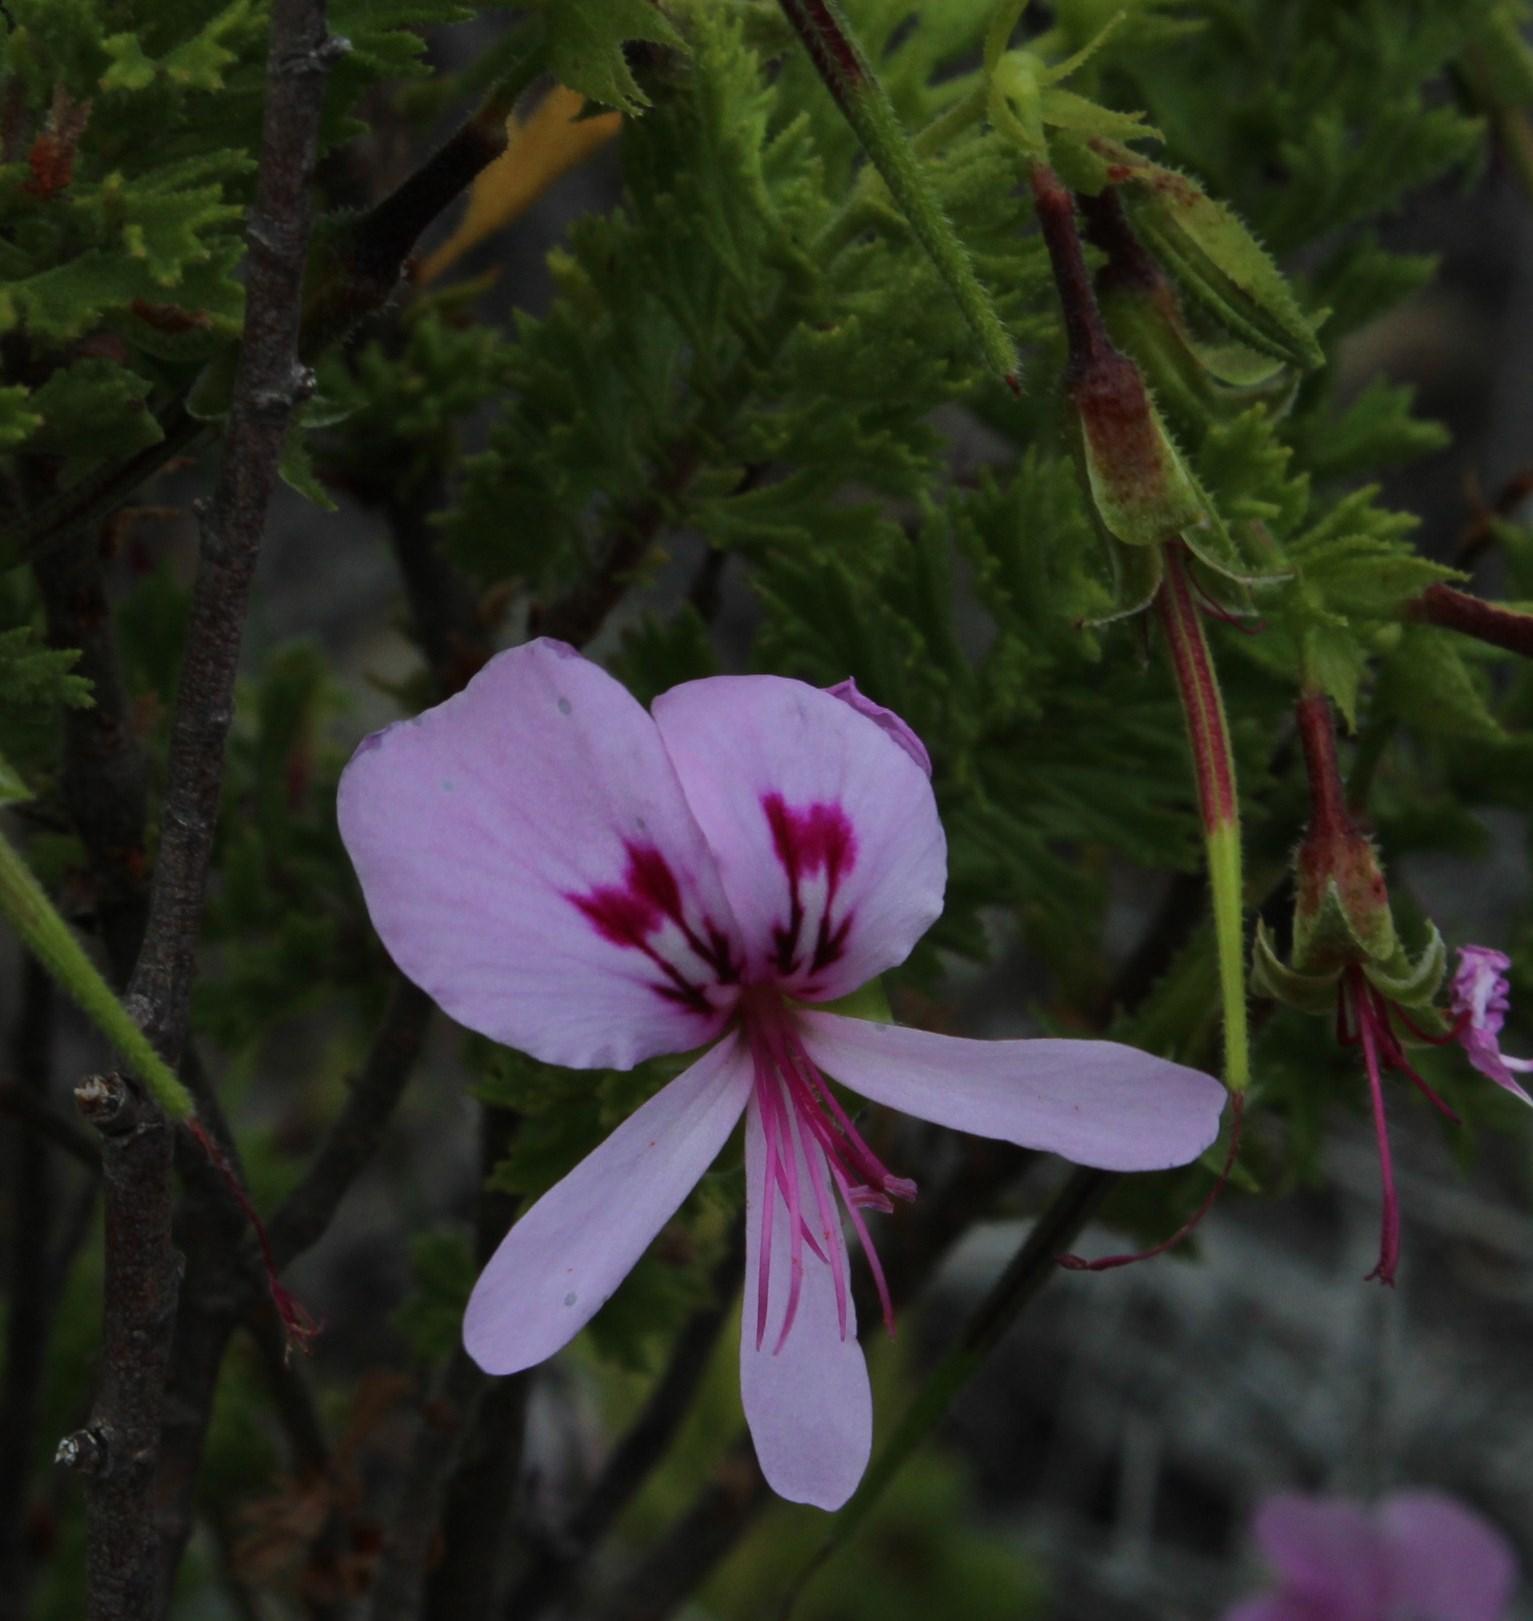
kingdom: Plantae
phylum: Tracheophyta
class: Magnoliopsida
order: Geraniales
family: Geraniaceae
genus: Pelargonium
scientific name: Pelargonium hermaniifolium
